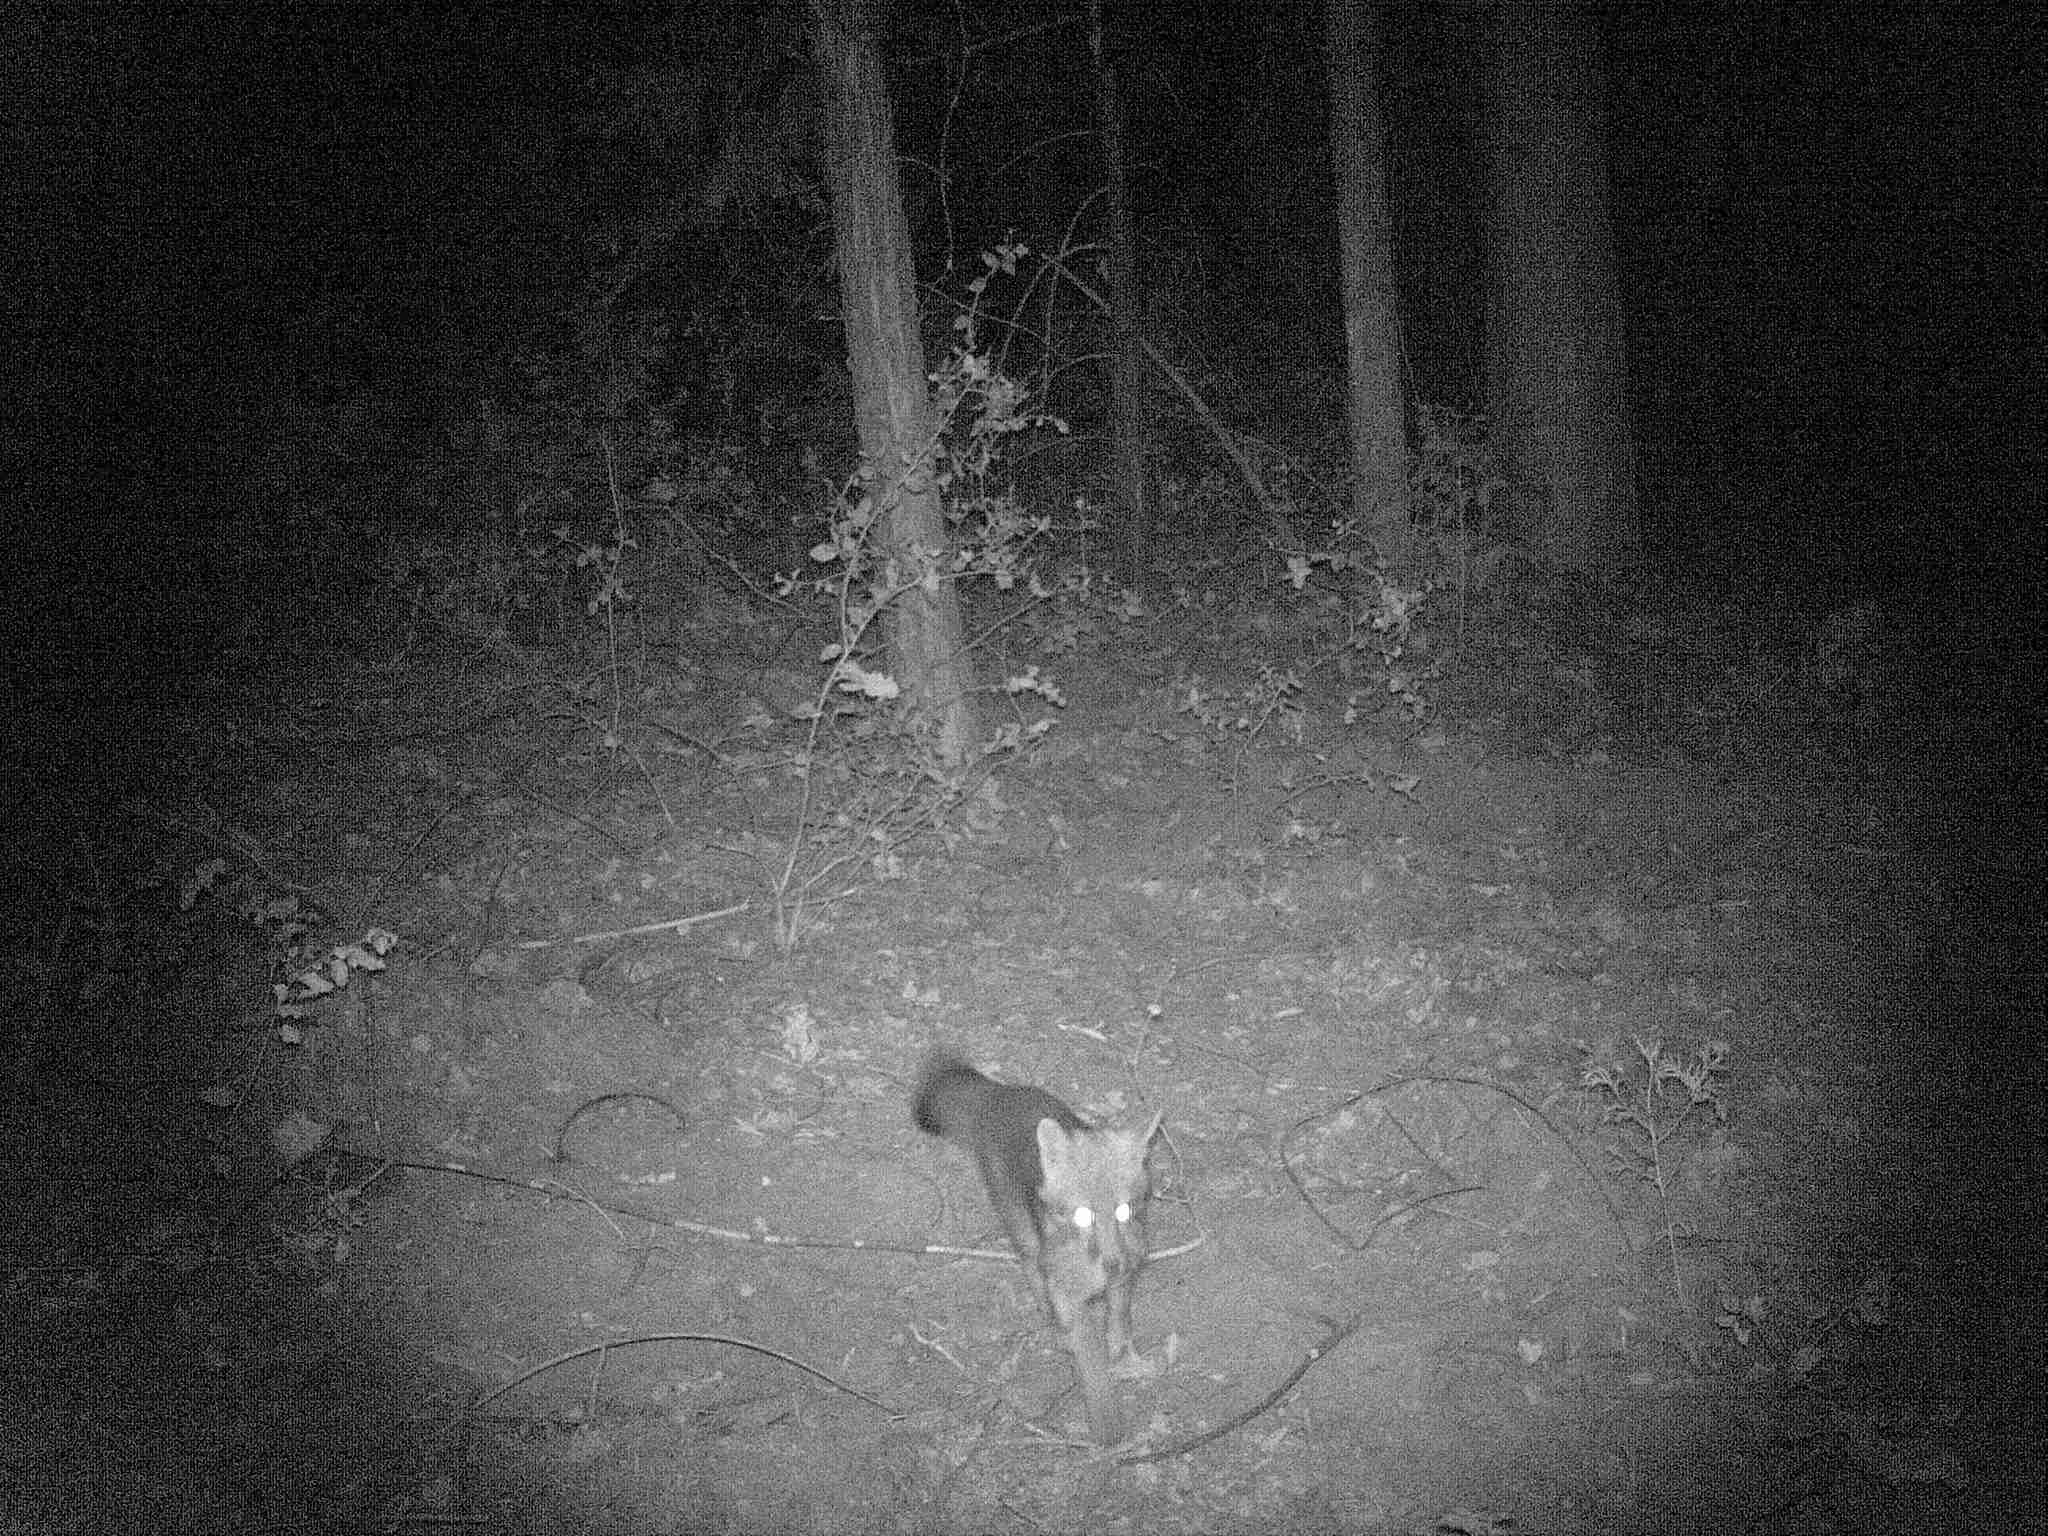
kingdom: Animalia
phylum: Chordata
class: Mammalia
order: Carnivora
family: Canidae
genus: Urocyon
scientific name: Urocyon cinereoargenteus
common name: Gray fox
